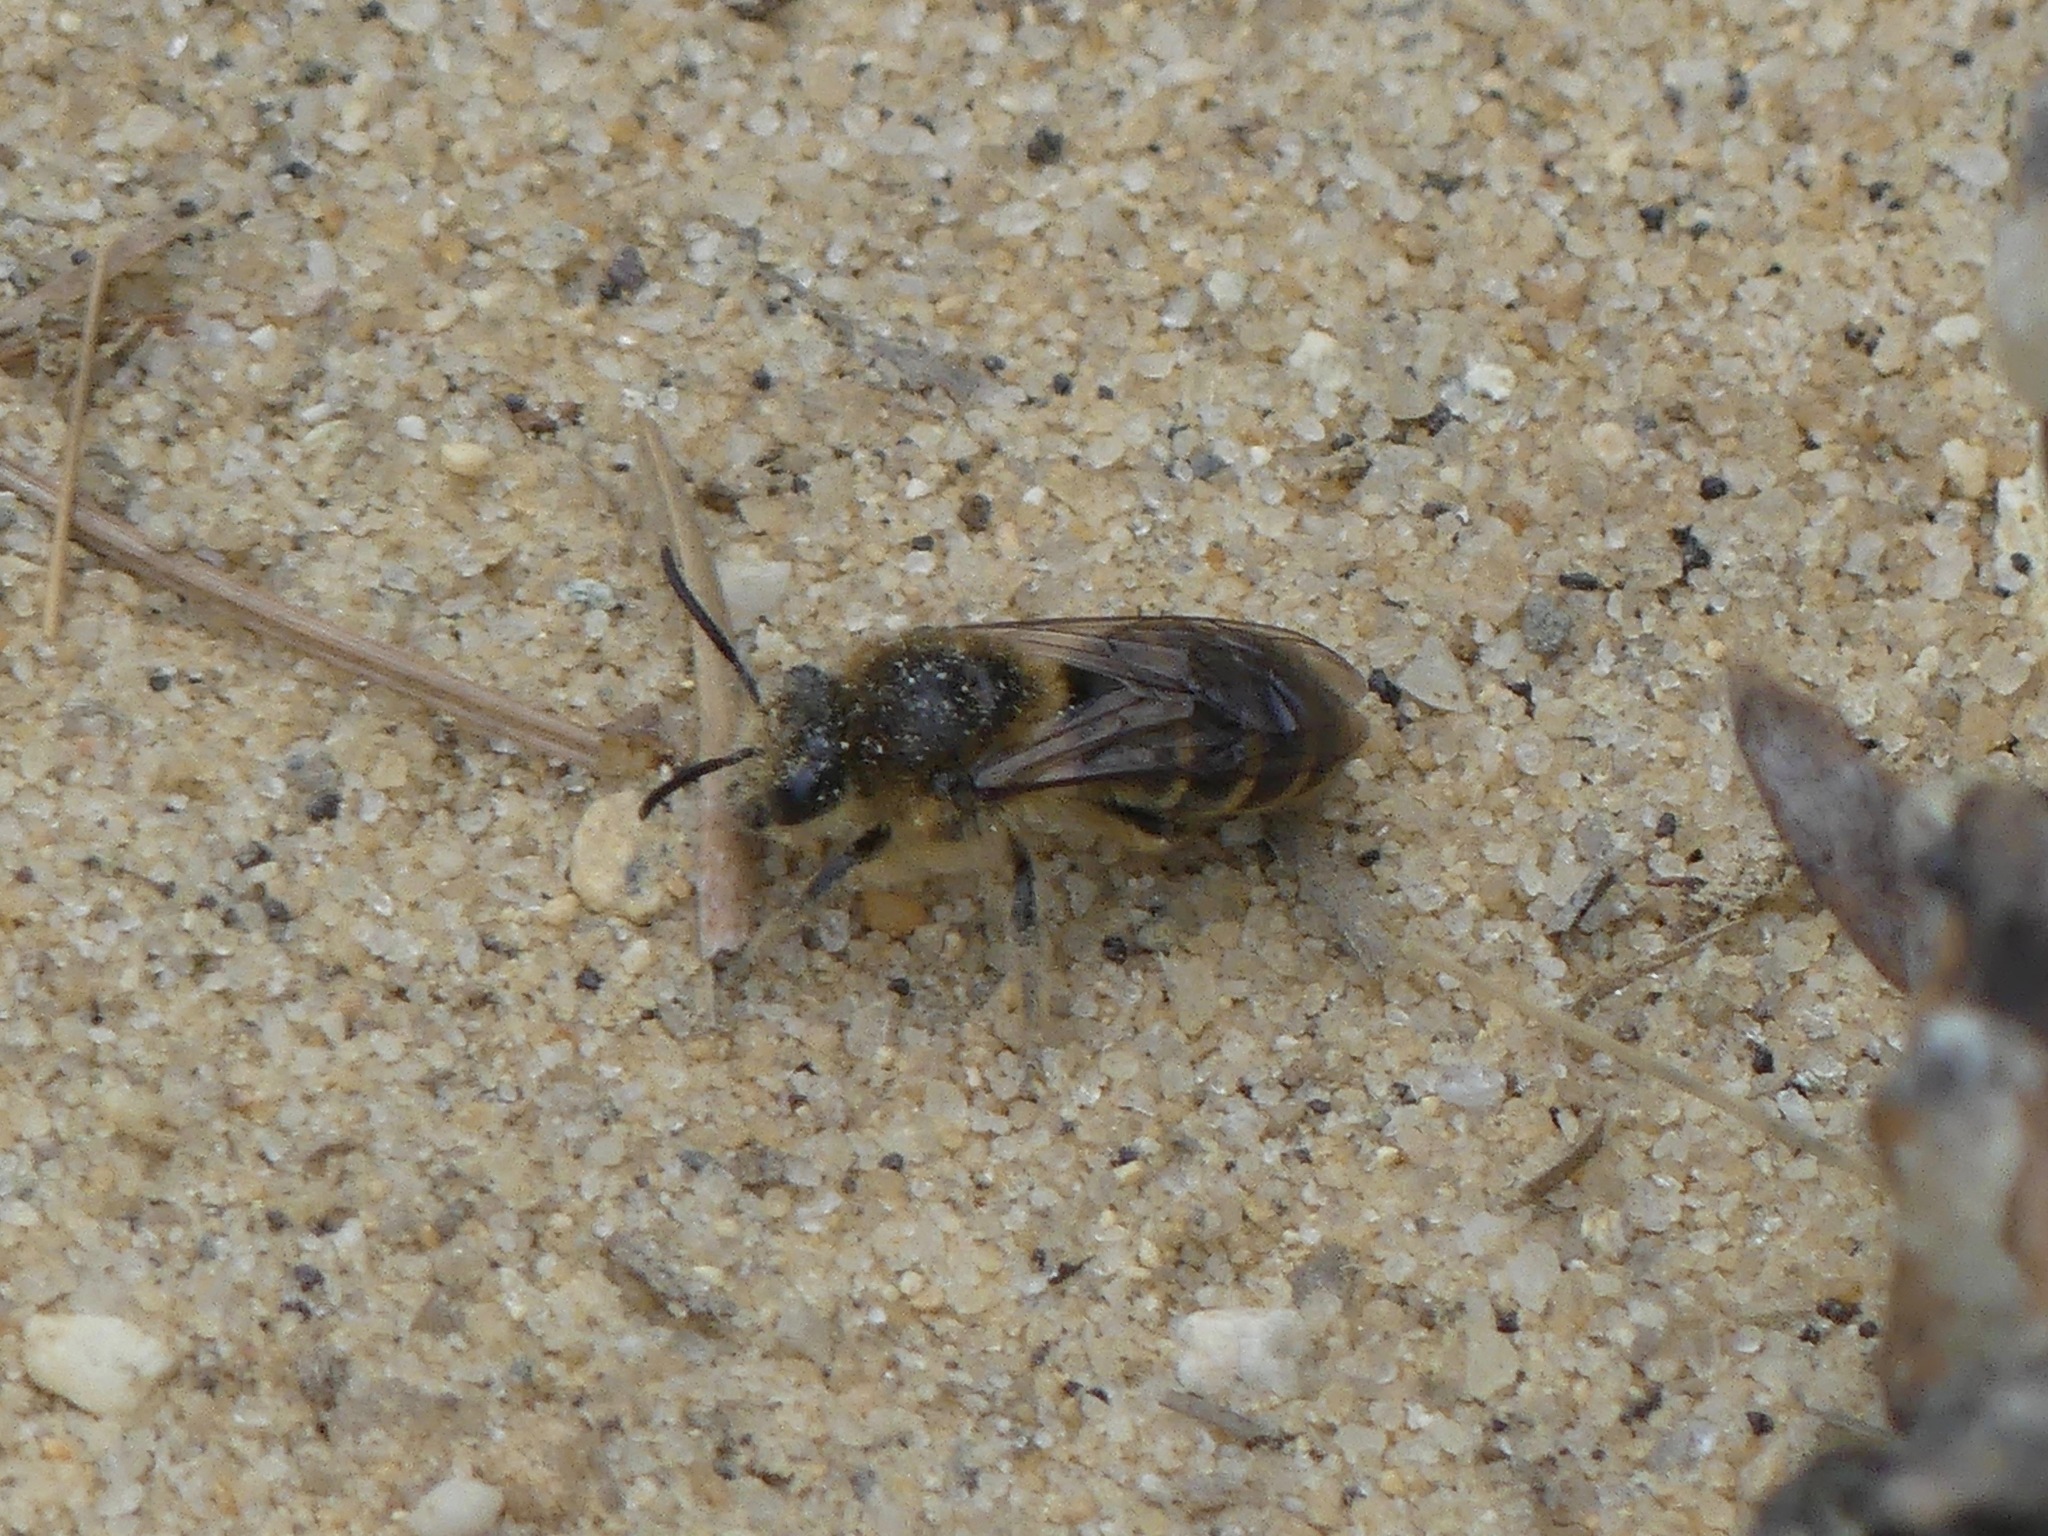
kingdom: Animalia
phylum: Arthropoda
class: Insecta
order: Hymenoptera
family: Colletidae
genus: Colletes
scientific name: Colletes inaequalis
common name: Unequal cellophane bee
